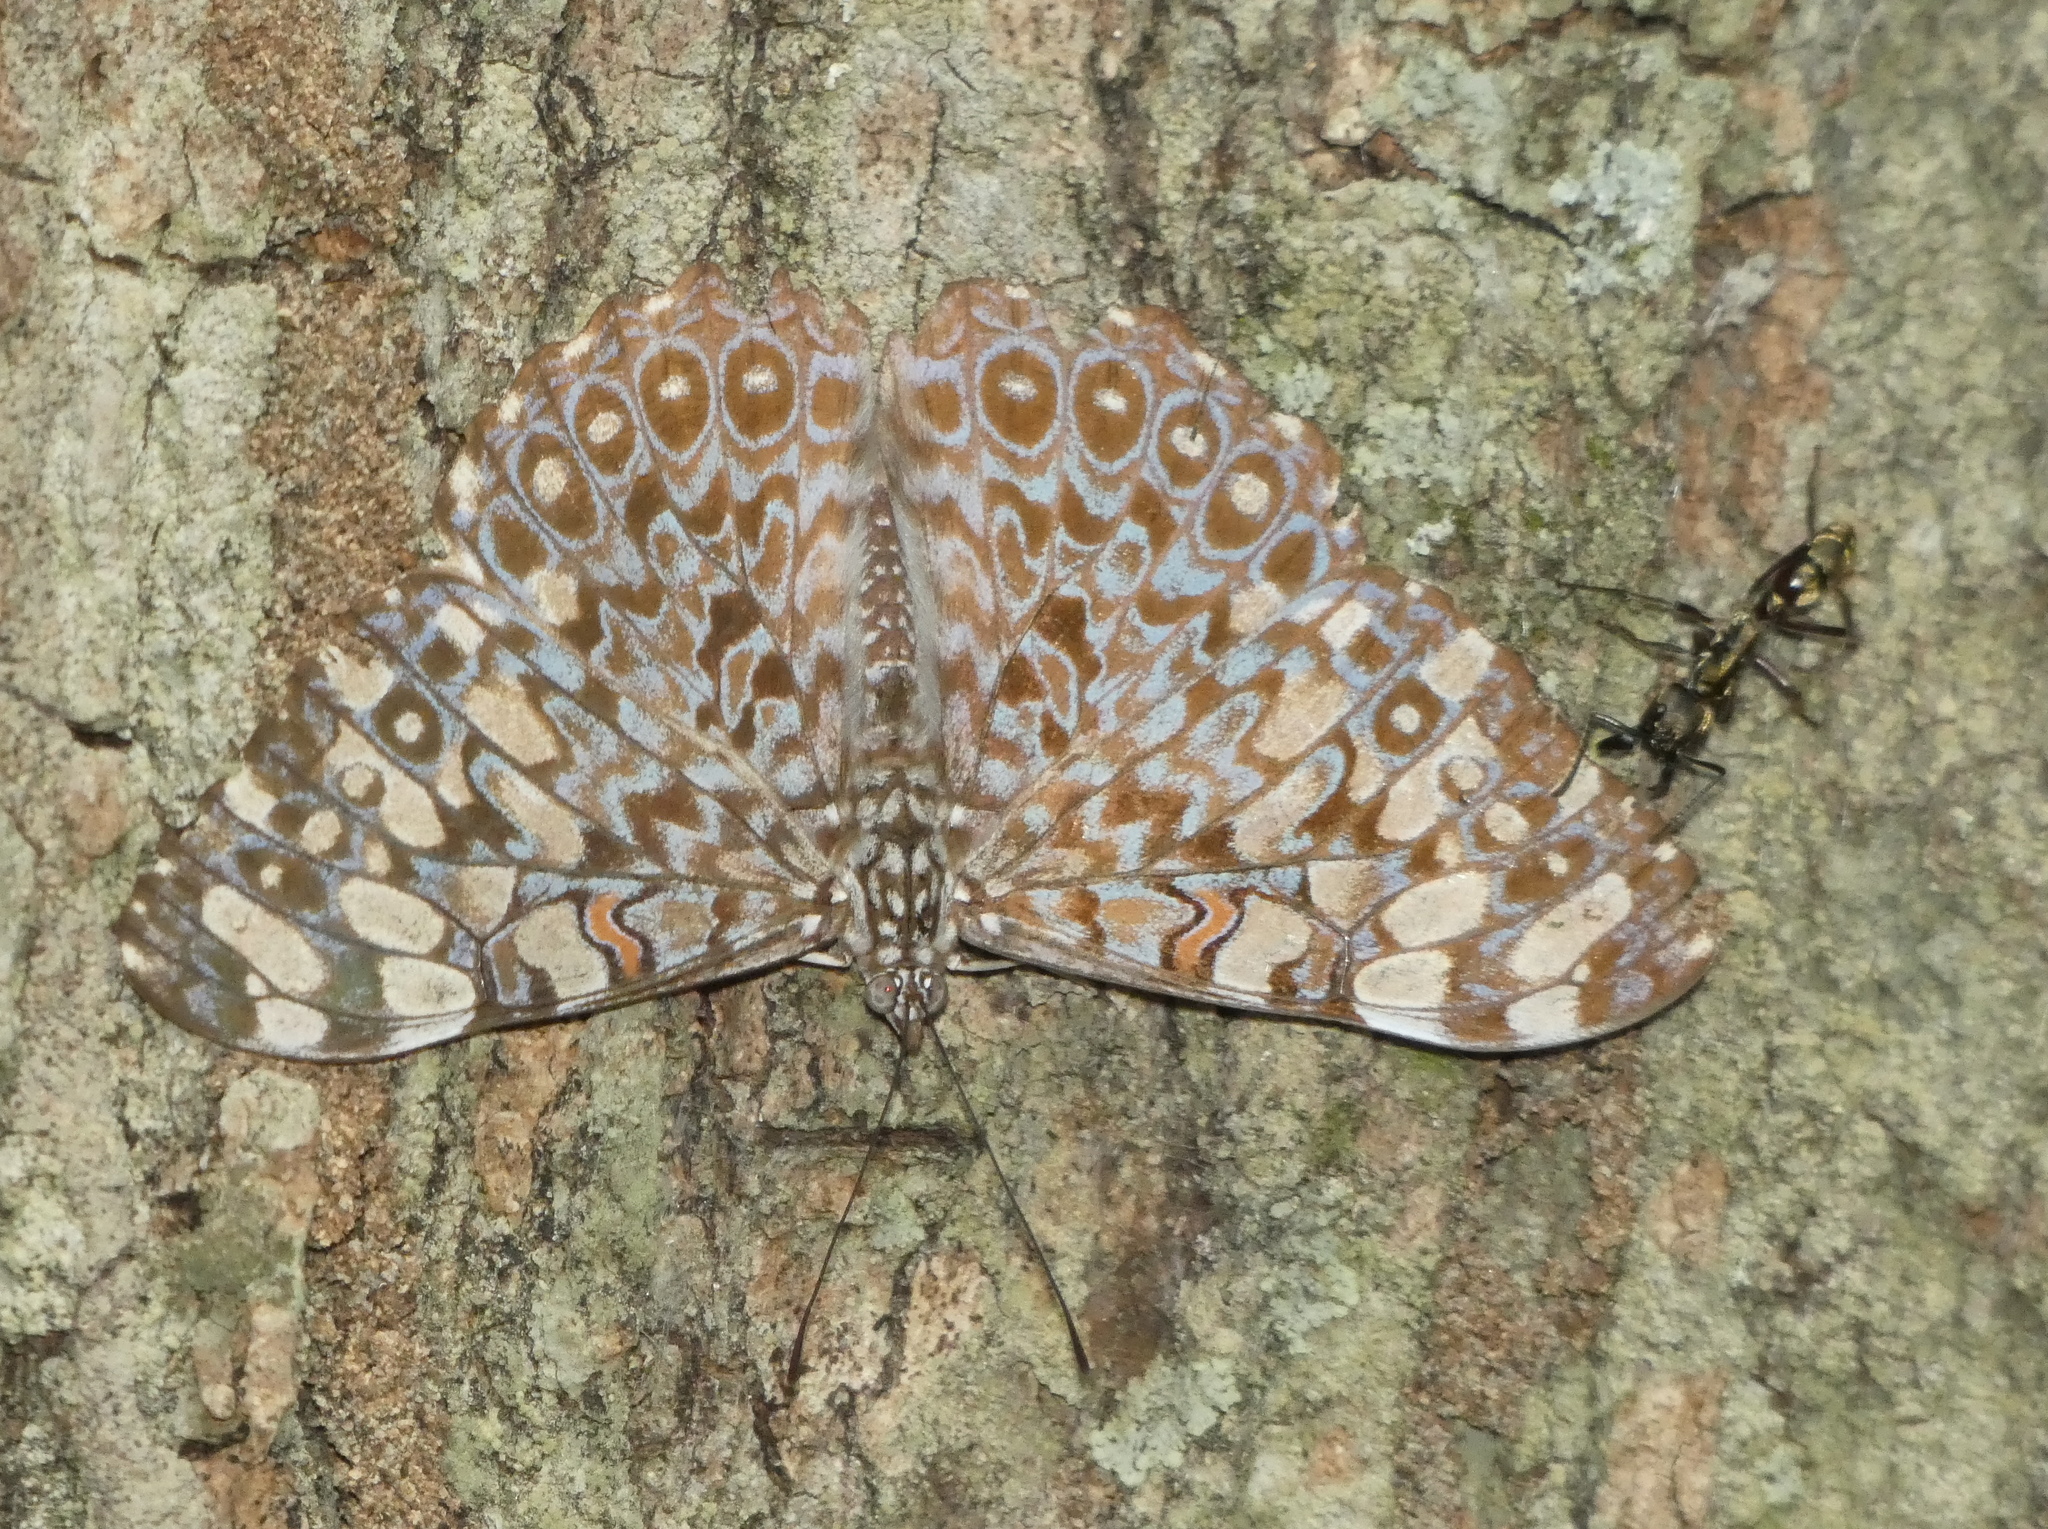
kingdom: Animalia
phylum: Arthropoda
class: Insecta
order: Lepidoptera
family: Nymphalidae
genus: Hamadryas
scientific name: Hamadryas feronia
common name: Variable cracker
